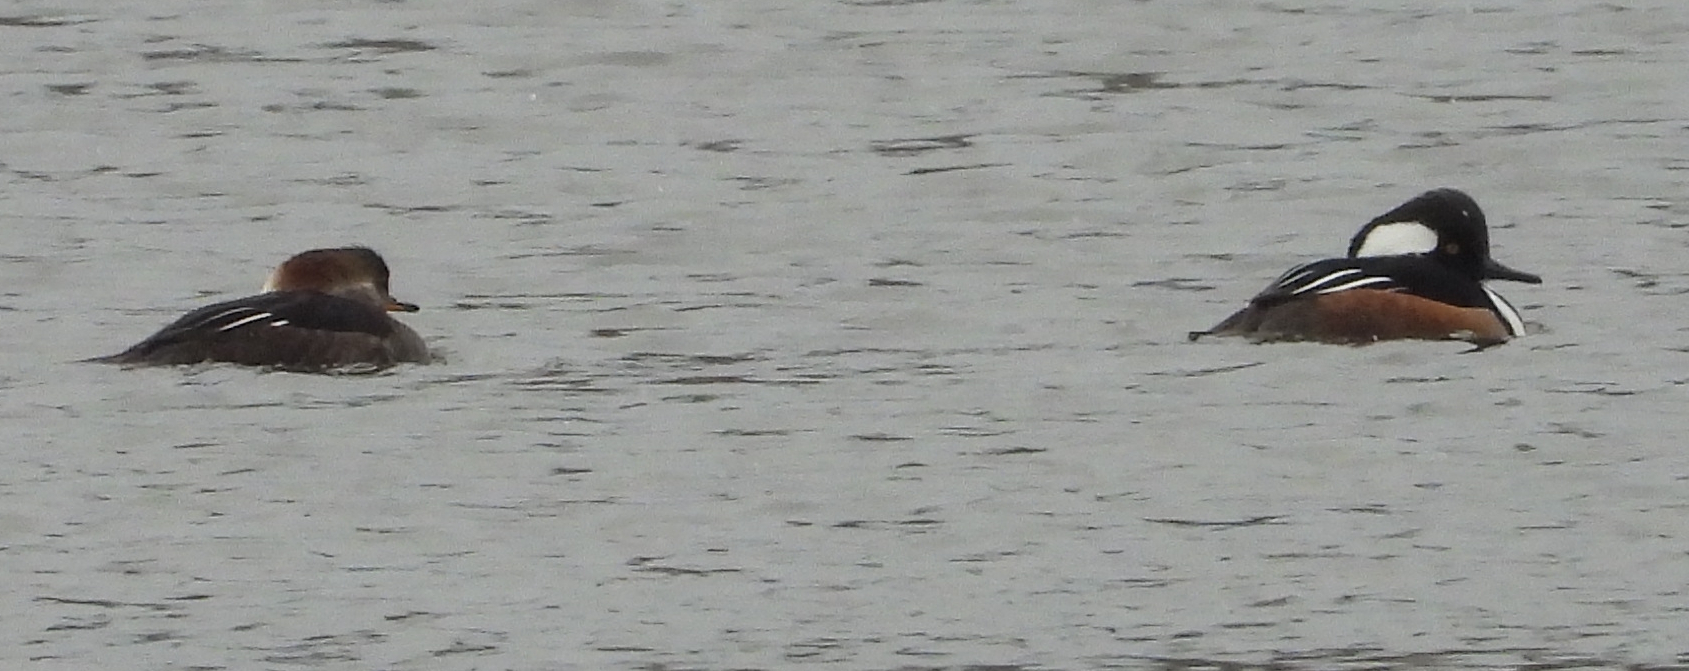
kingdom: Animalia
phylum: Chordata
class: Aves
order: Anseriformes
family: Anatidae
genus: Lophodytes
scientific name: Lophodytes cucullatus
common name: Hooded merganser
